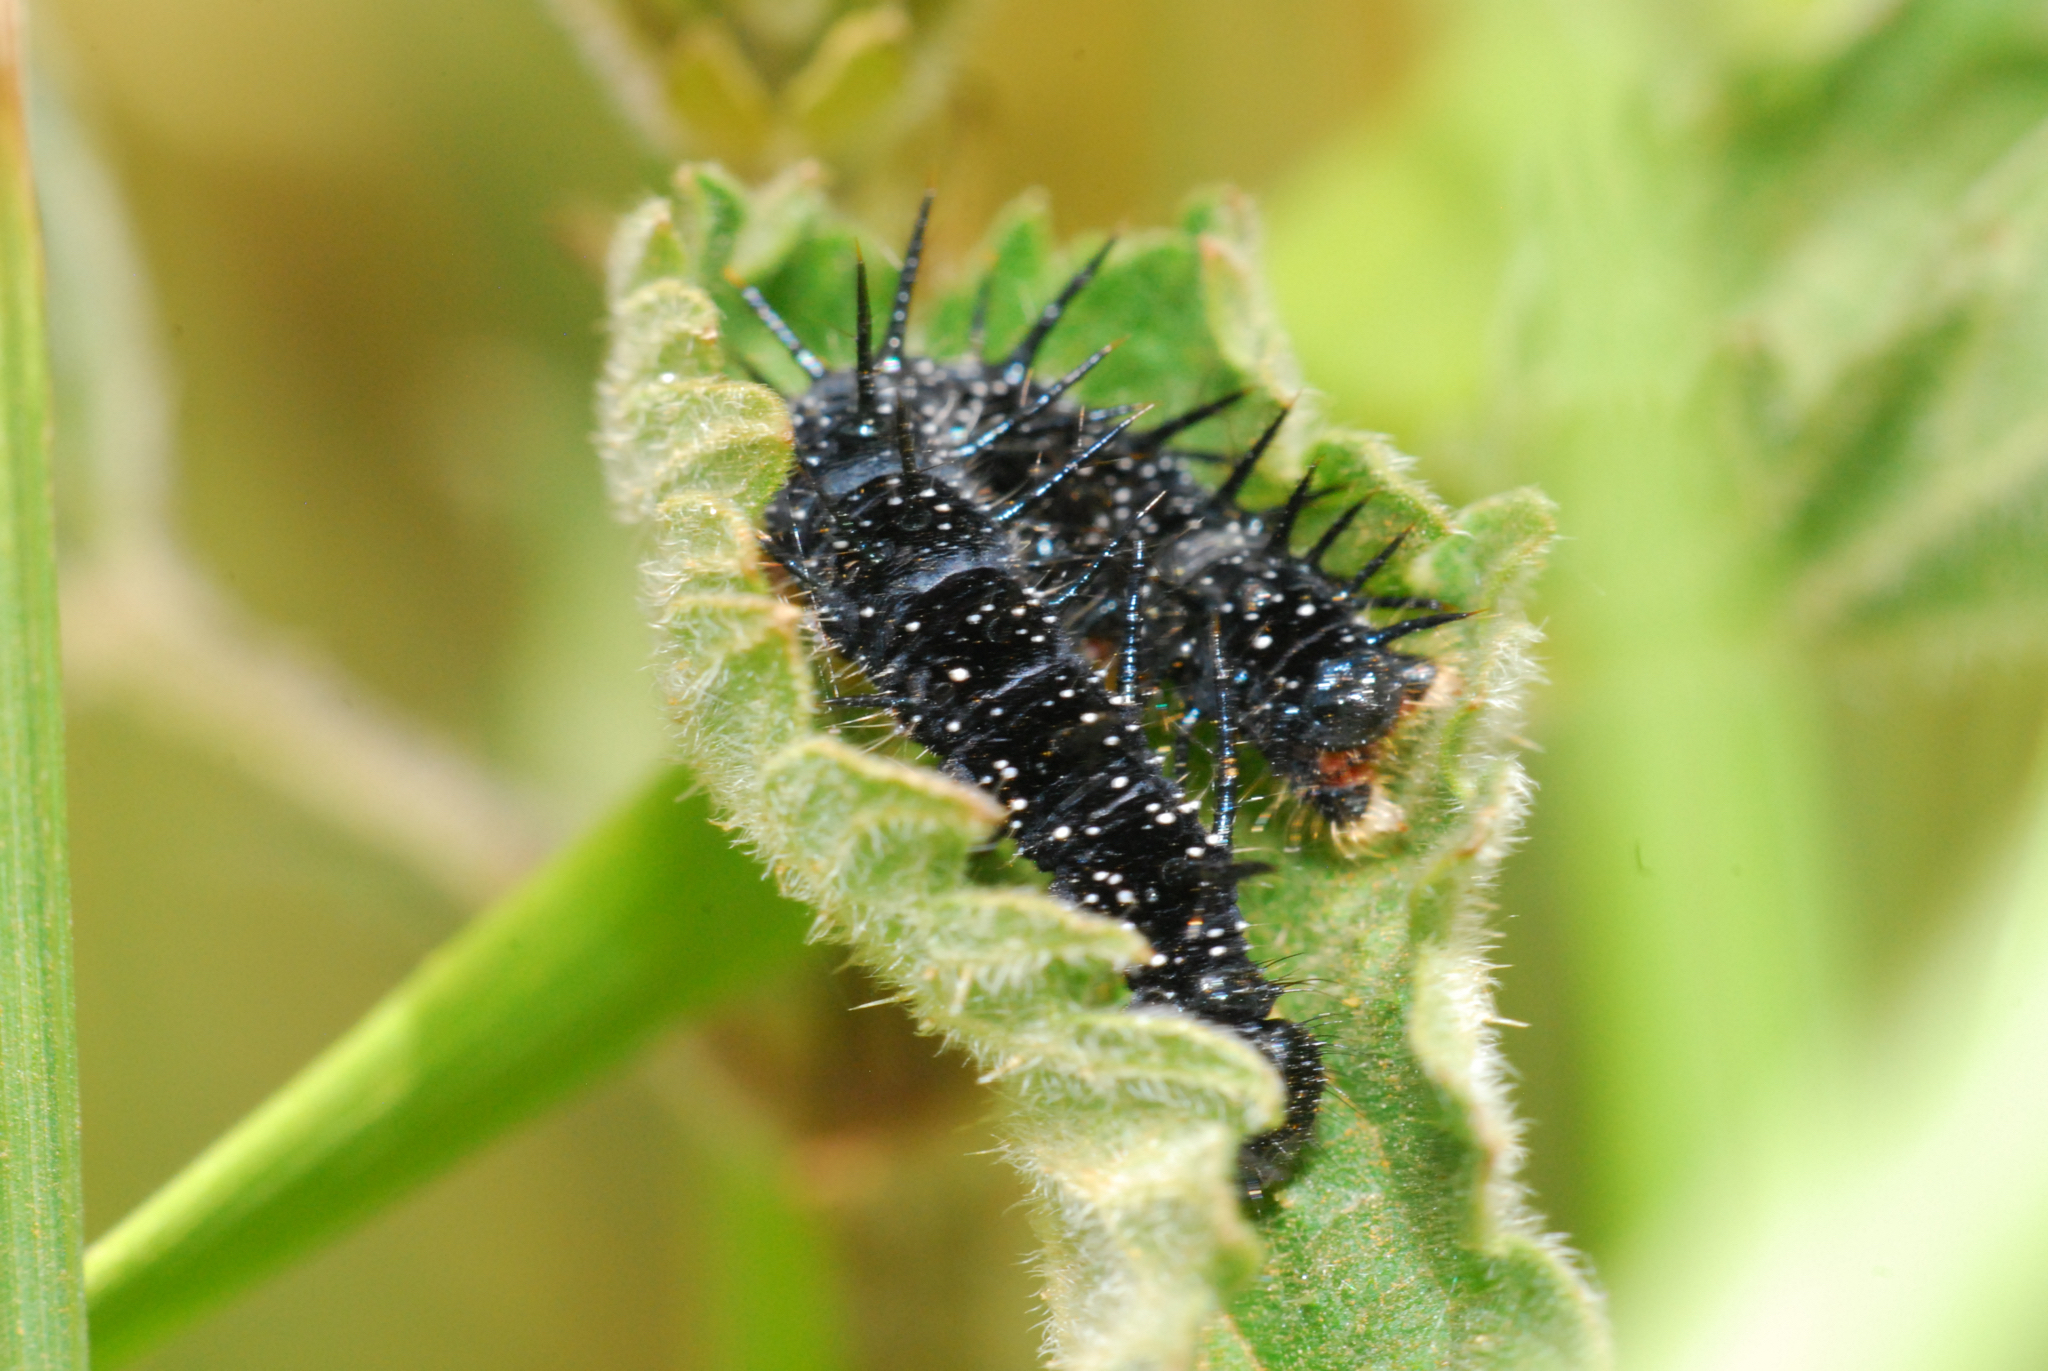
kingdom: Animalia
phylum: Arthropoda
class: Insecta
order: Lepidoptera
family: Nymphalidae
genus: Aglais
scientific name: Aglais io
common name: Peacock
